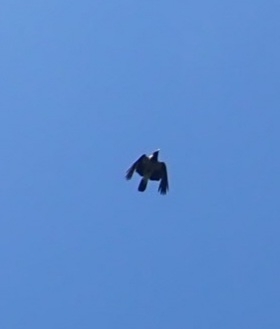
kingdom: Animalia
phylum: Chordata
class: Aves
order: Passeriformes
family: Corvidae
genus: Corvus
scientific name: Corvus cornix
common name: Hooded crow
